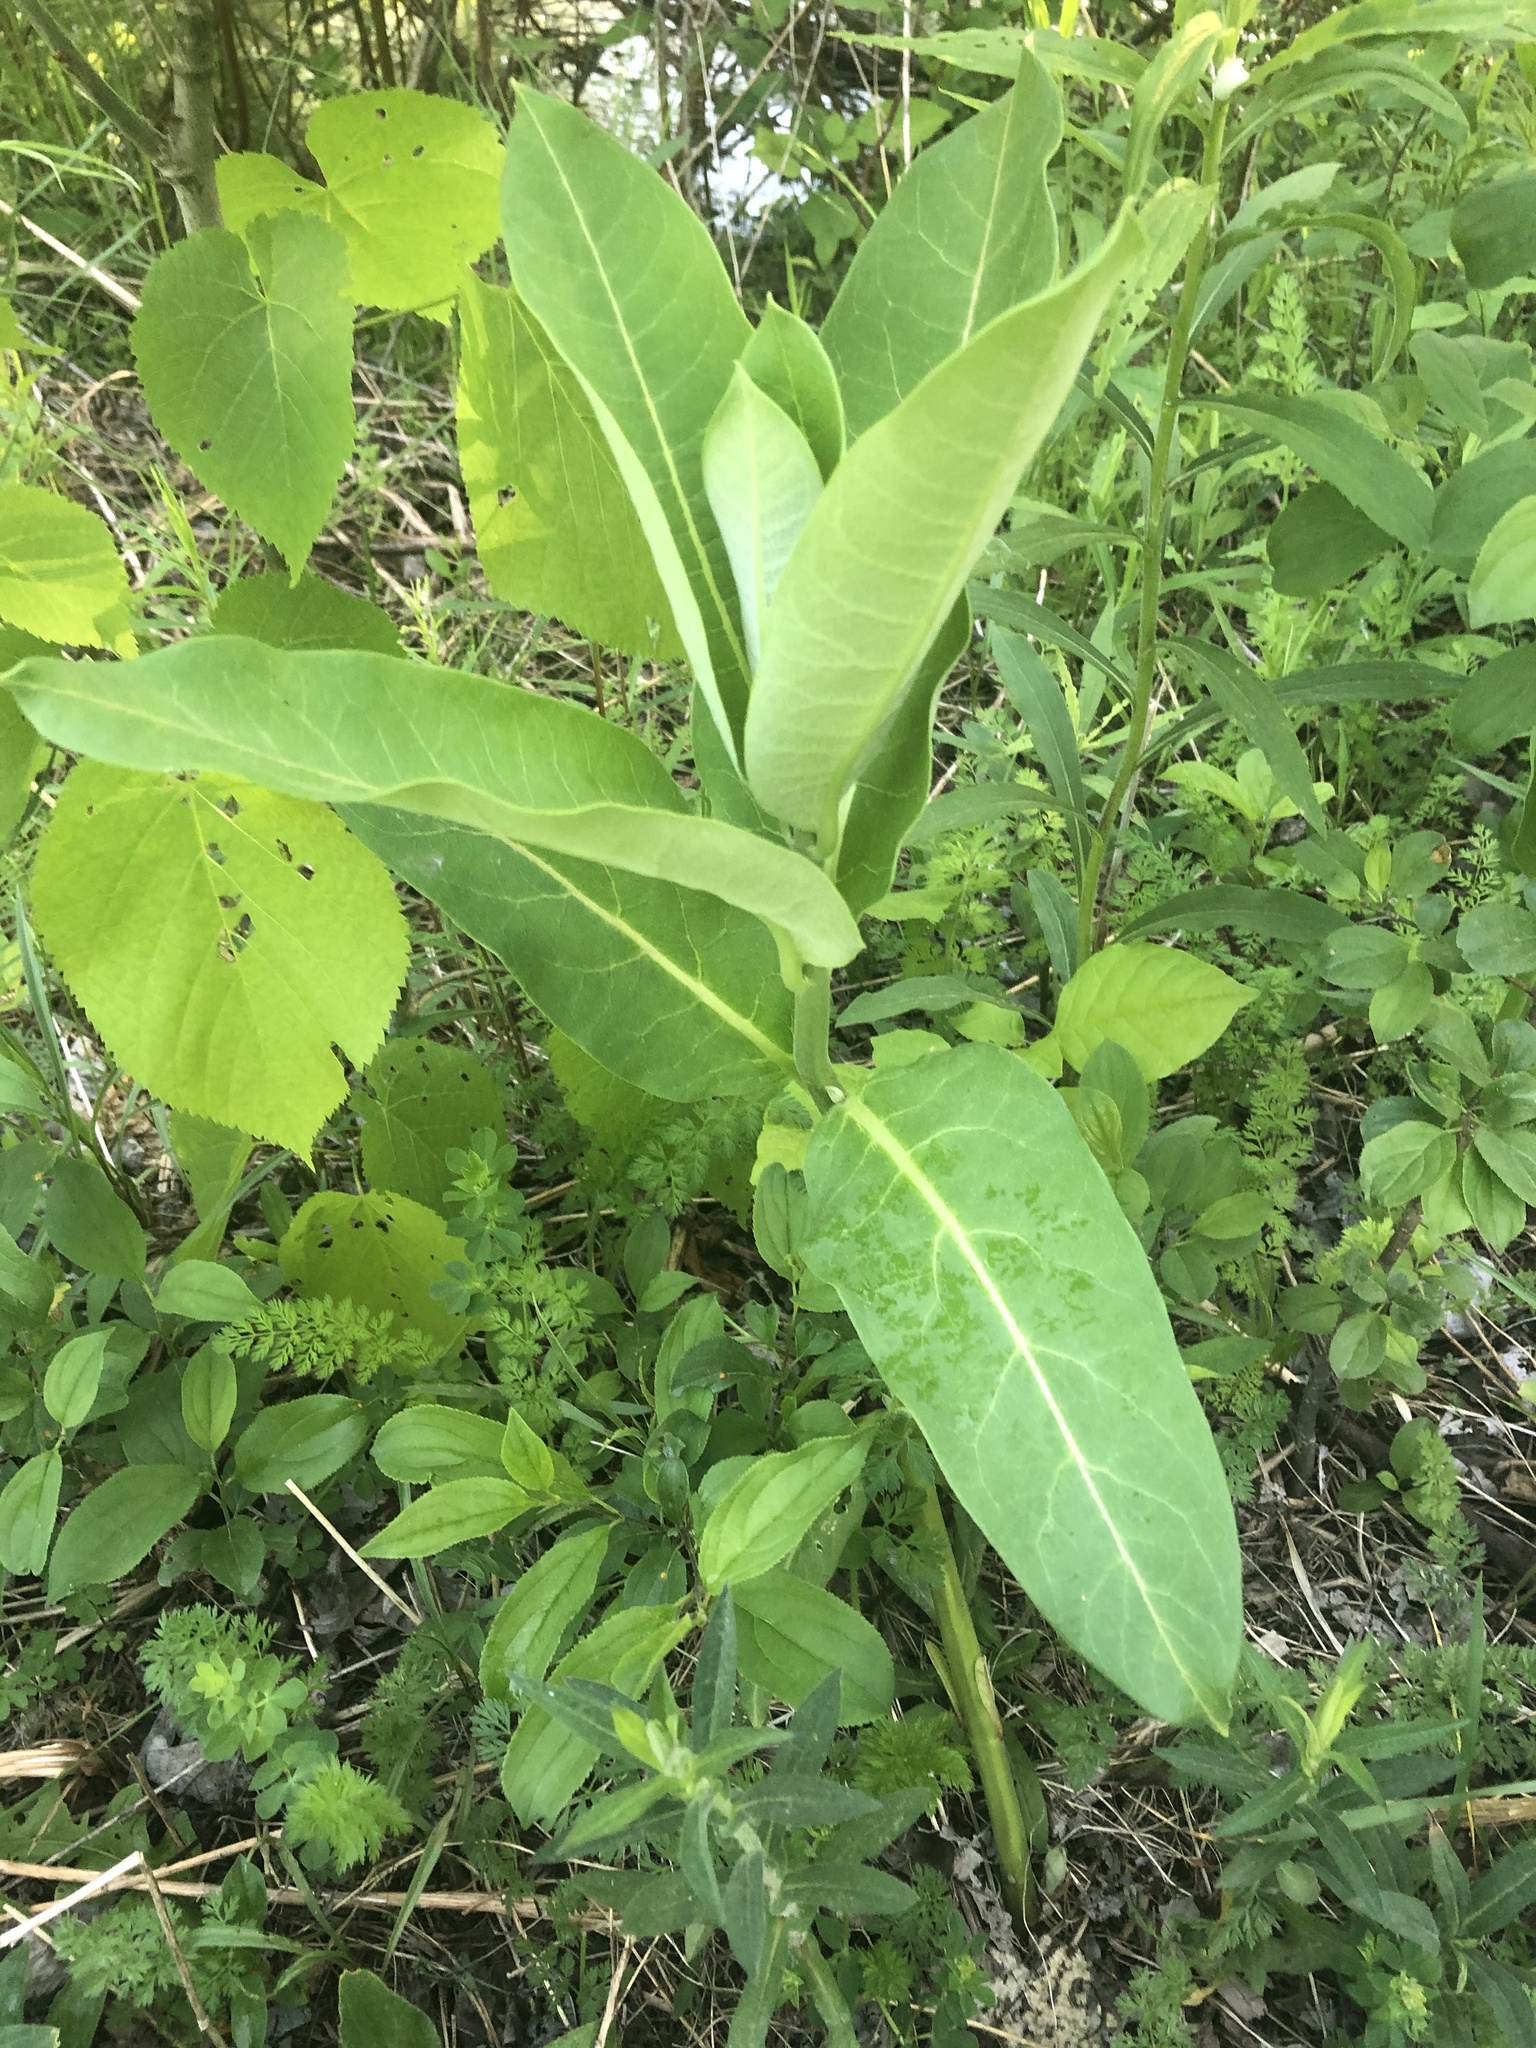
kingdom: Plantae
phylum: Tracheophyta
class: Magnoliopsida
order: Gentianales
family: Apocynaceae
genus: Asclepias
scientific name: Asclepias syriaca
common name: Common milkweed
